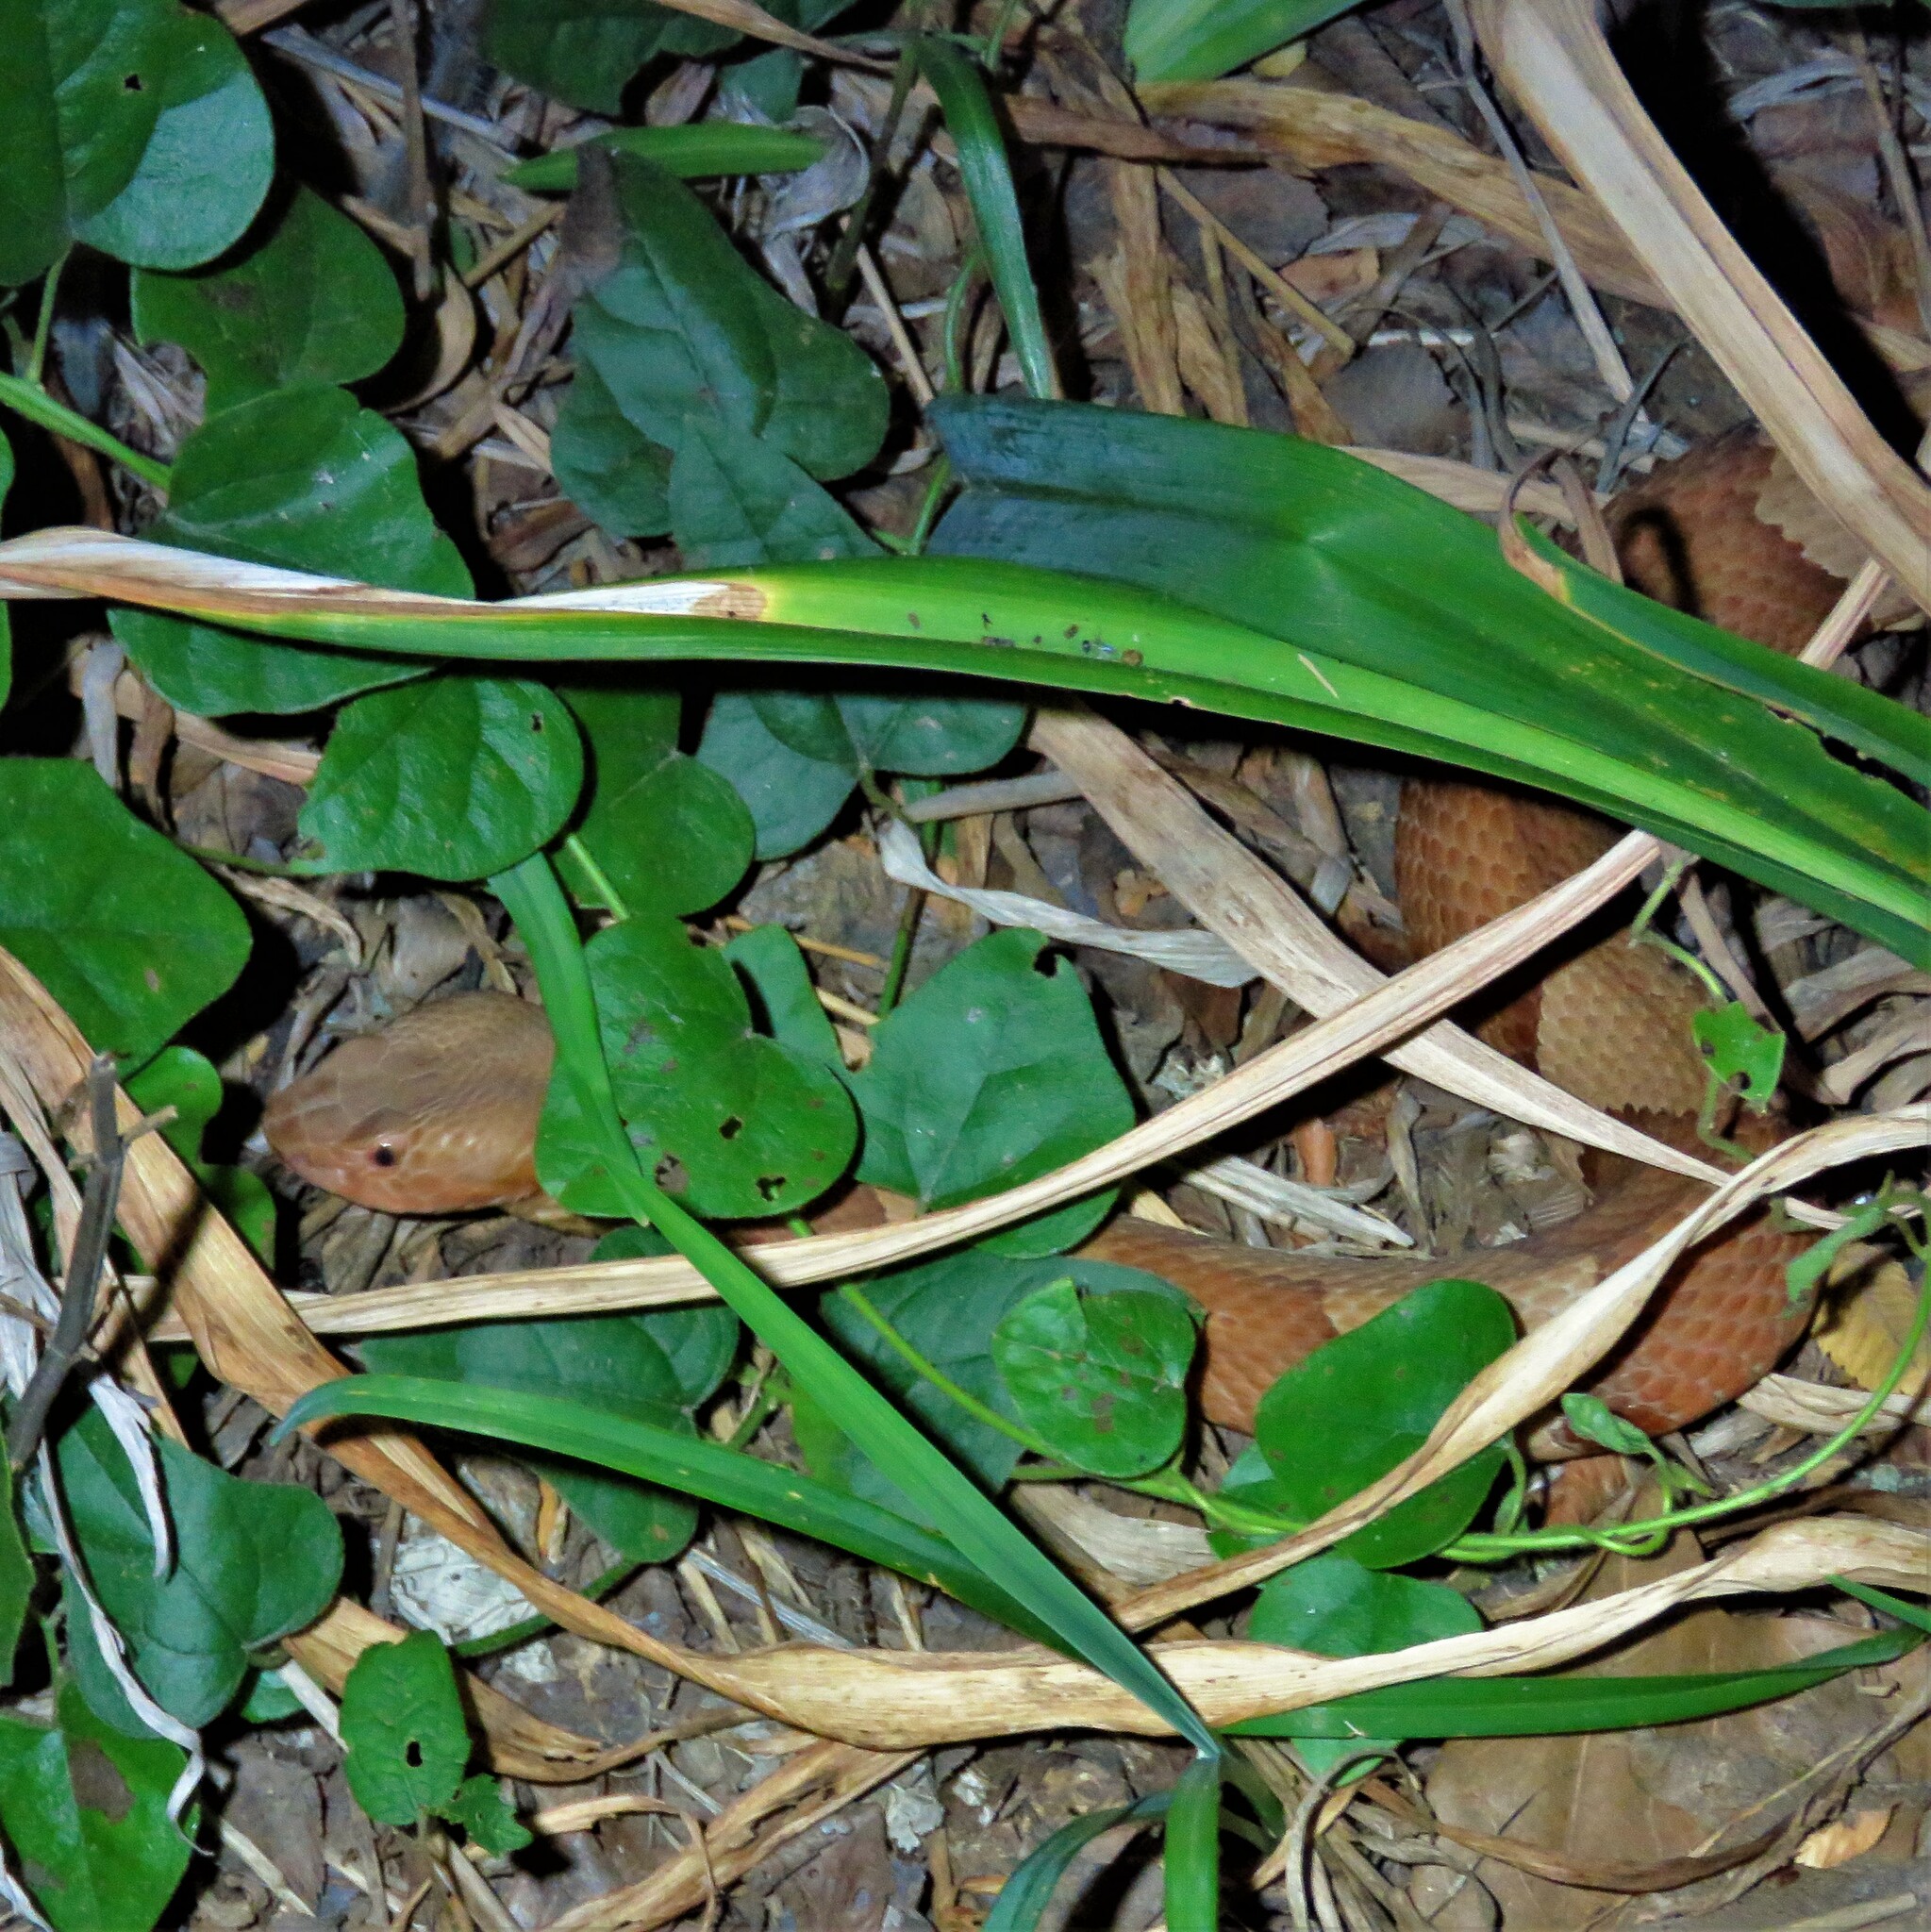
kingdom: Animalia
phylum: Chordata
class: Squamata
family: Viperidae
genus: Agkistrodon
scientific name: Agkistrodon laticinctus
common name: Broad-banded copperhead
